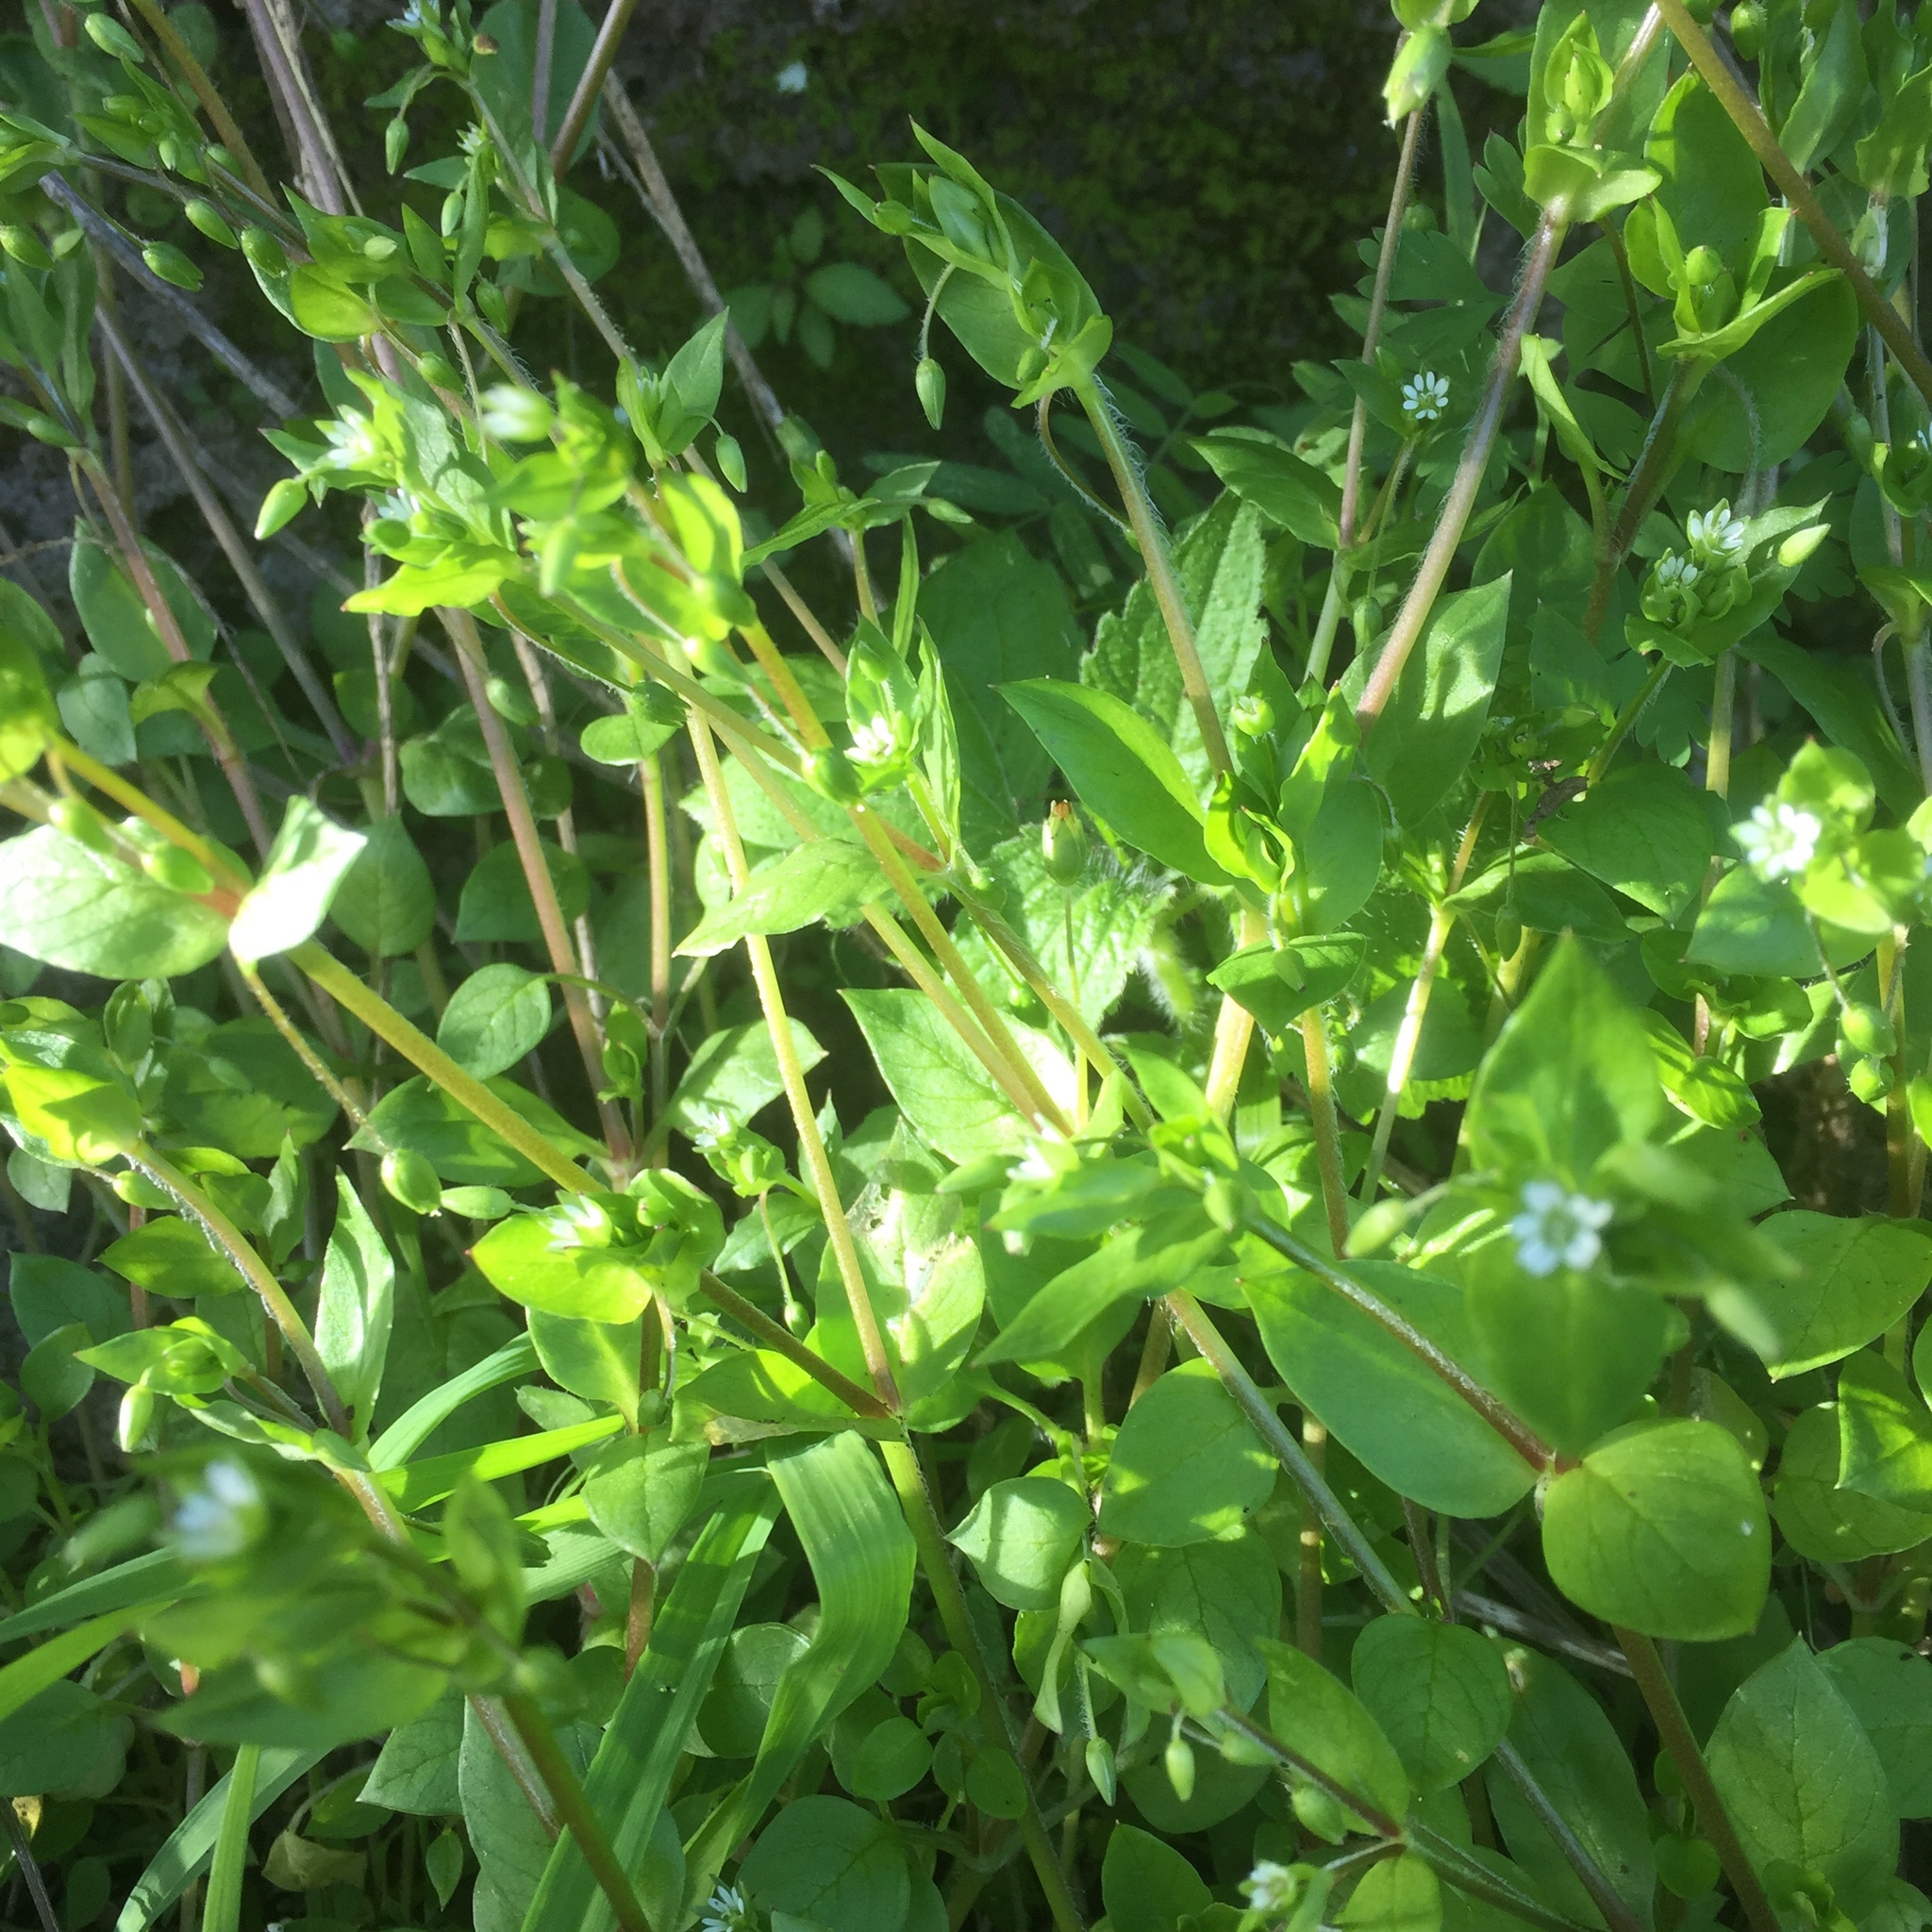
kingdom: Plantae
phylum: Tracheophyta
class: Magnoliopsida
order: Caryophyllales
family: Caryophyllaceae
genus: Stellaria
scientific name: Stellaria media
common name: Common chickweed
